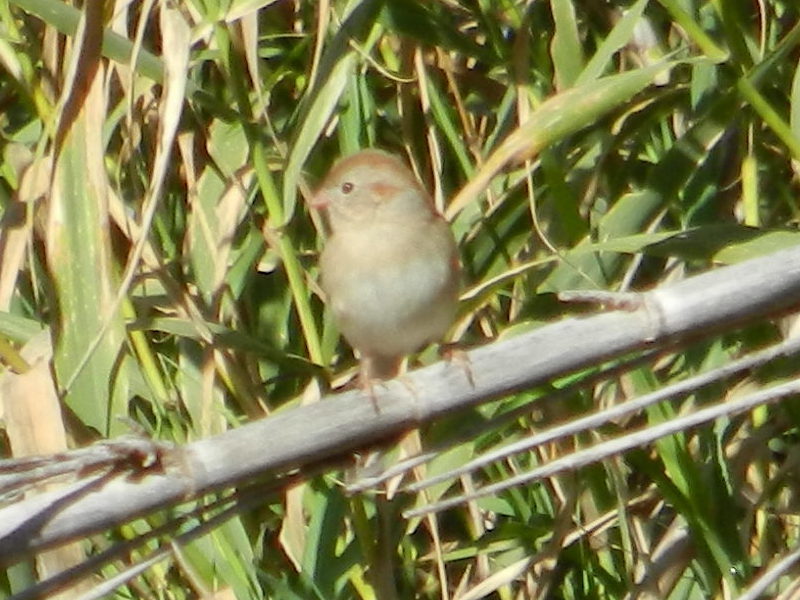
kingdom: Animalia
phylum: Chordata
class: Aves
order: Passeriformes
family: Passerellidae
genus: Spizella
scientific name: Spizella pusilla
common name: Field sparrow
